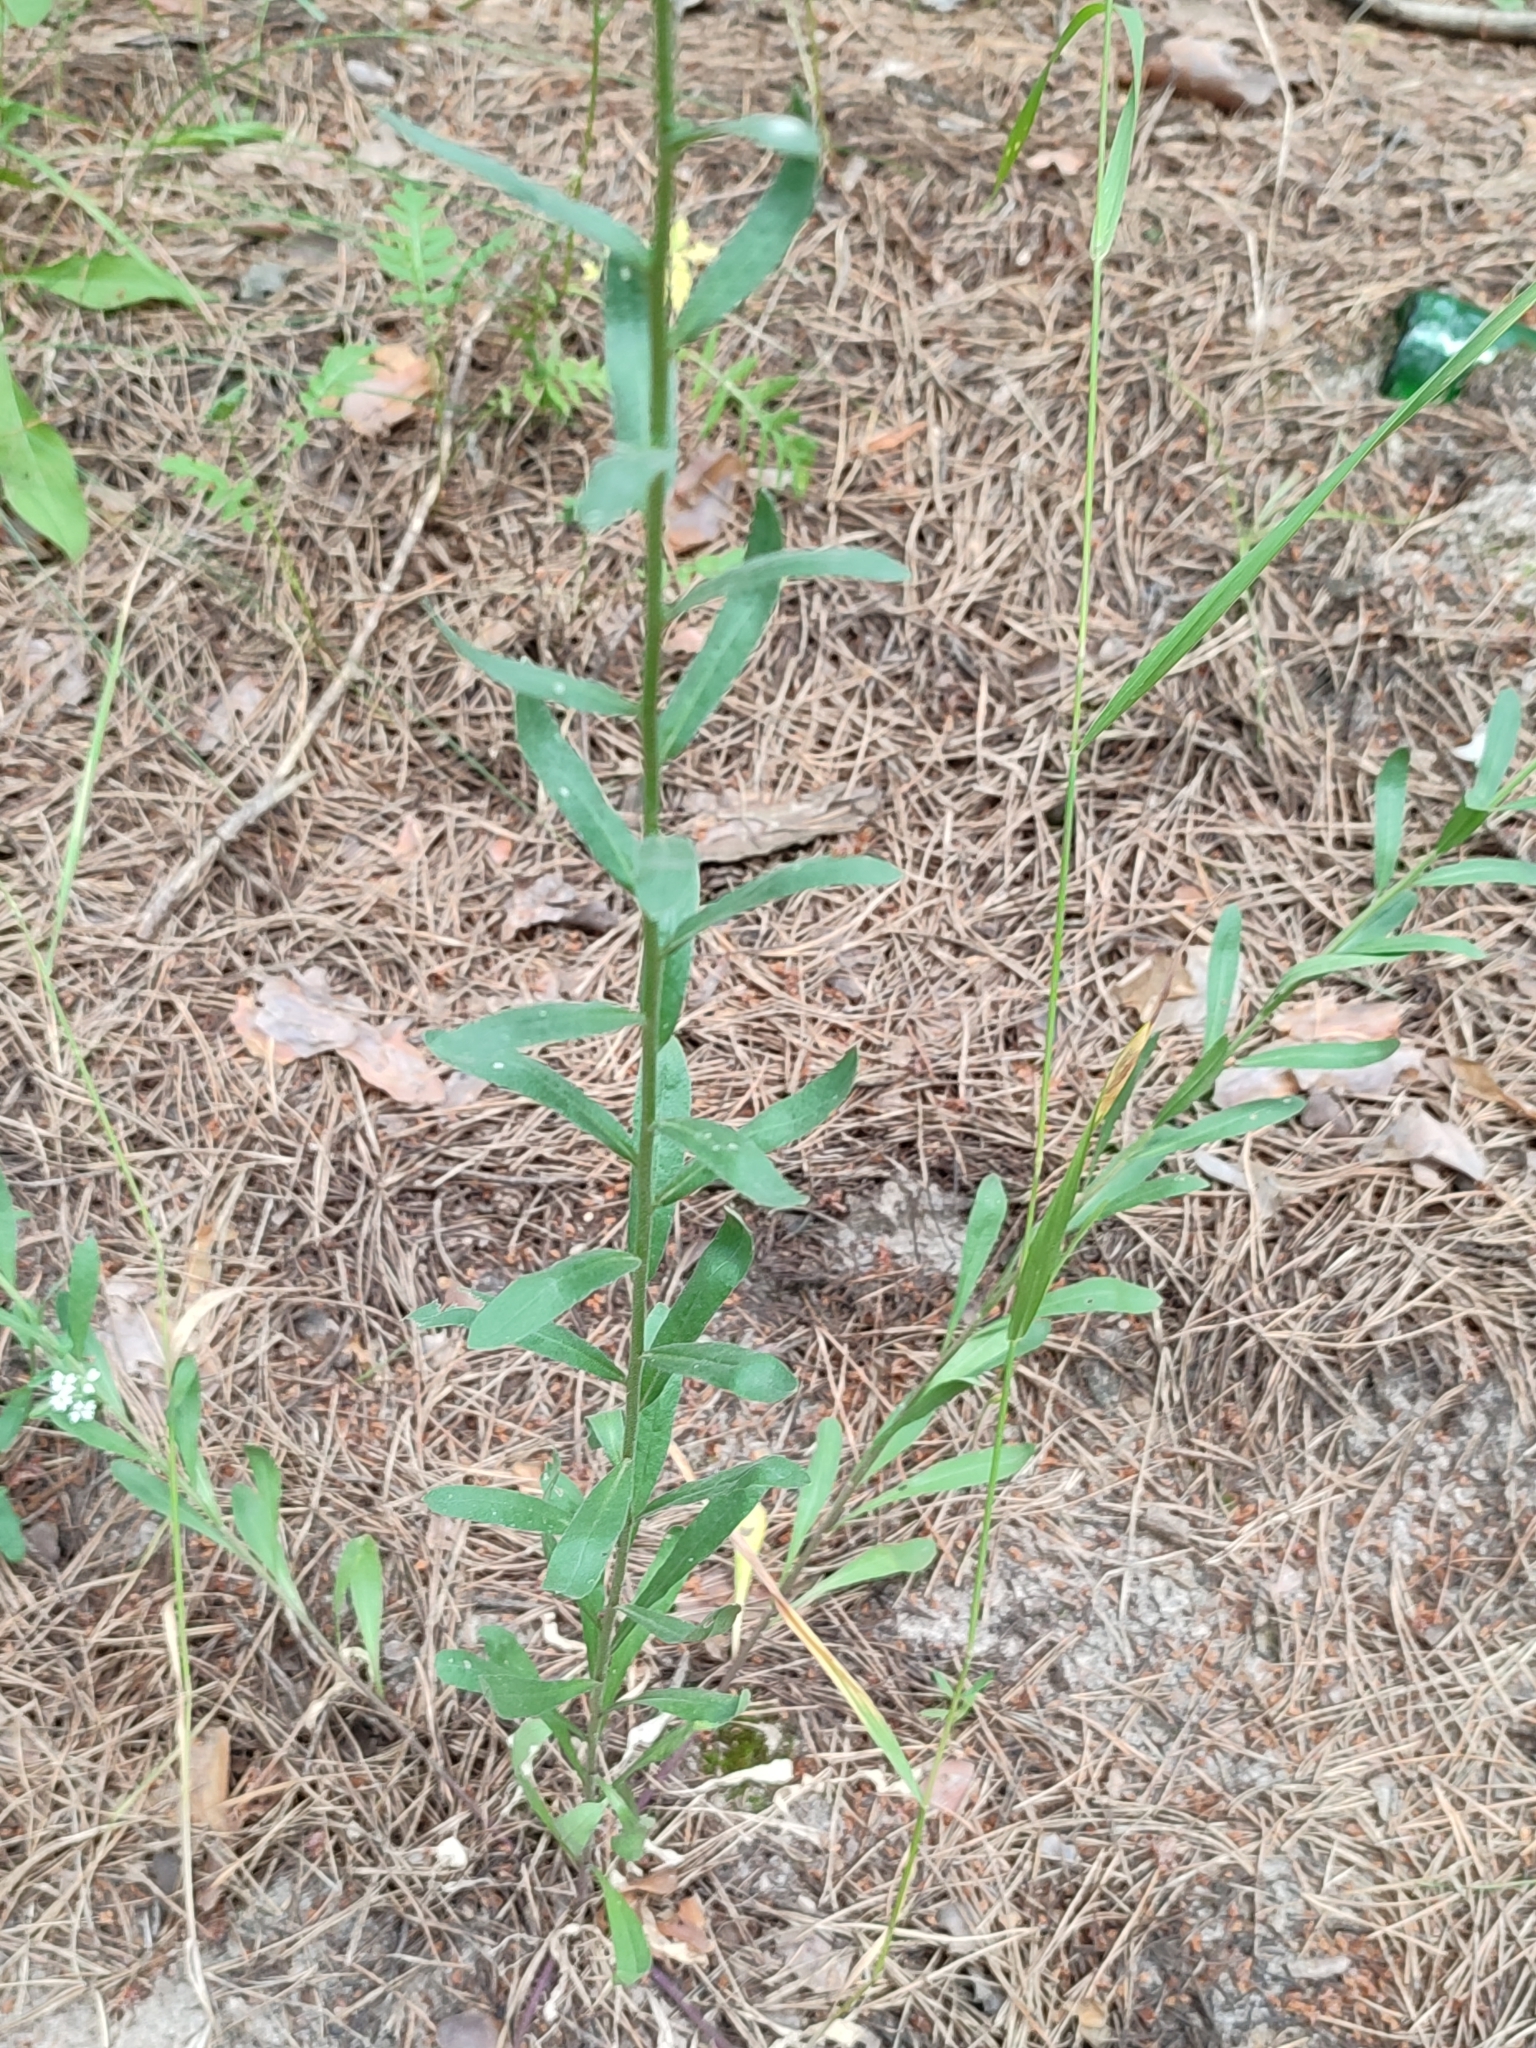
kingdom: Plantae
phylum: Tracheophyta
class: Magnoliopsida
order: Brassicales
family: Brassicaceae
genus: Berteroa
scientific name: Berteroa incana
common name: Hoary alison
